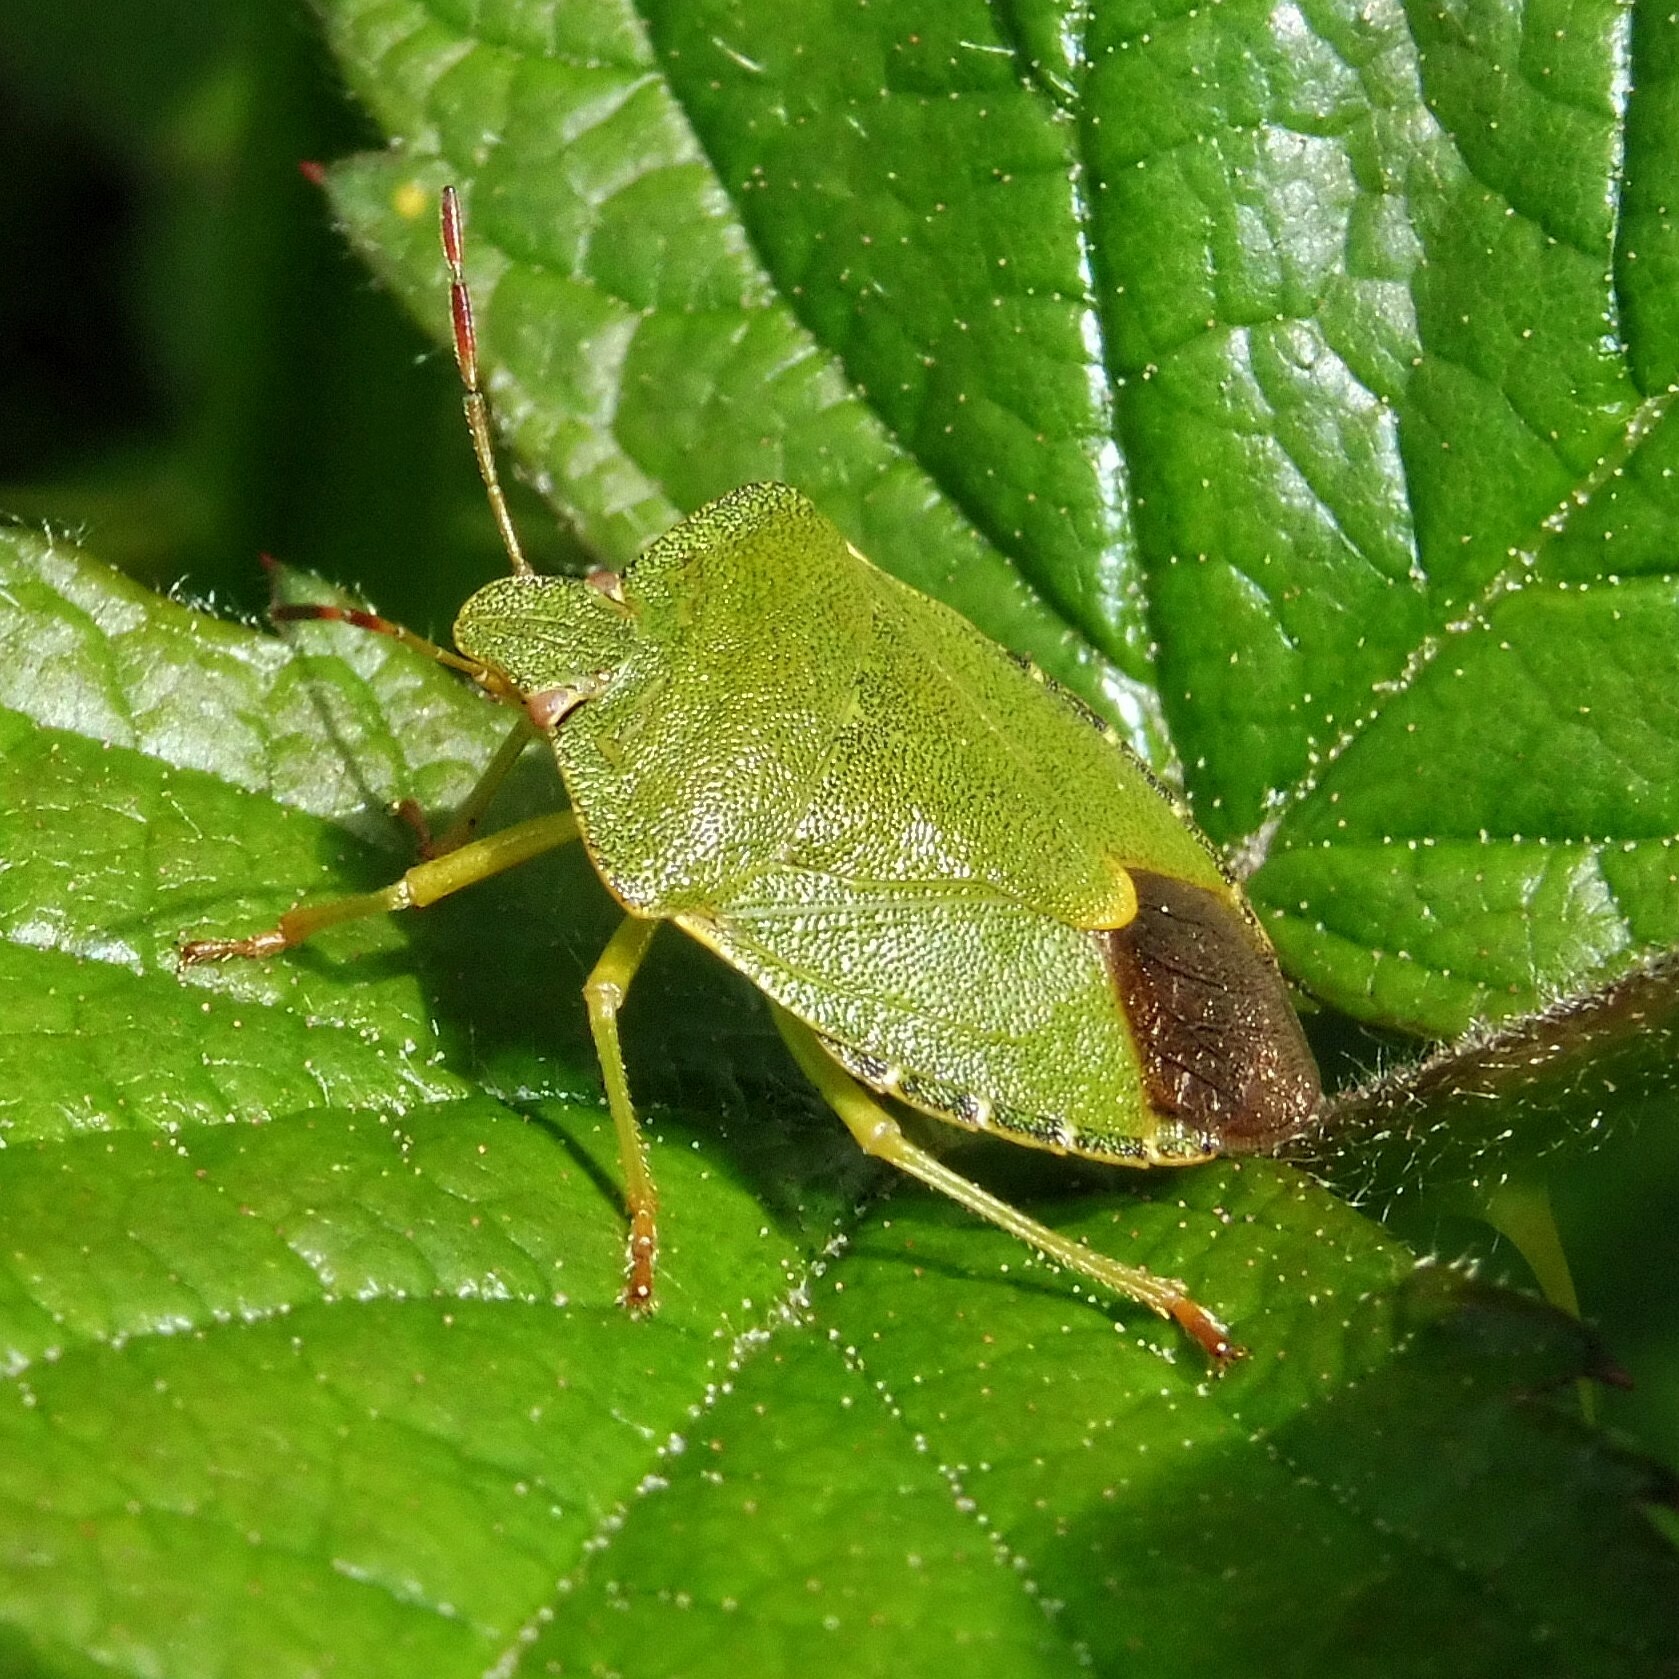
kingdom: Animalia
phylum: Arthropoda
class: Insecta
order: Hemiptera
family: Pentatomidae
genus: Palomena
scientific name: Palomena prasina
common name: Green shieldbug
